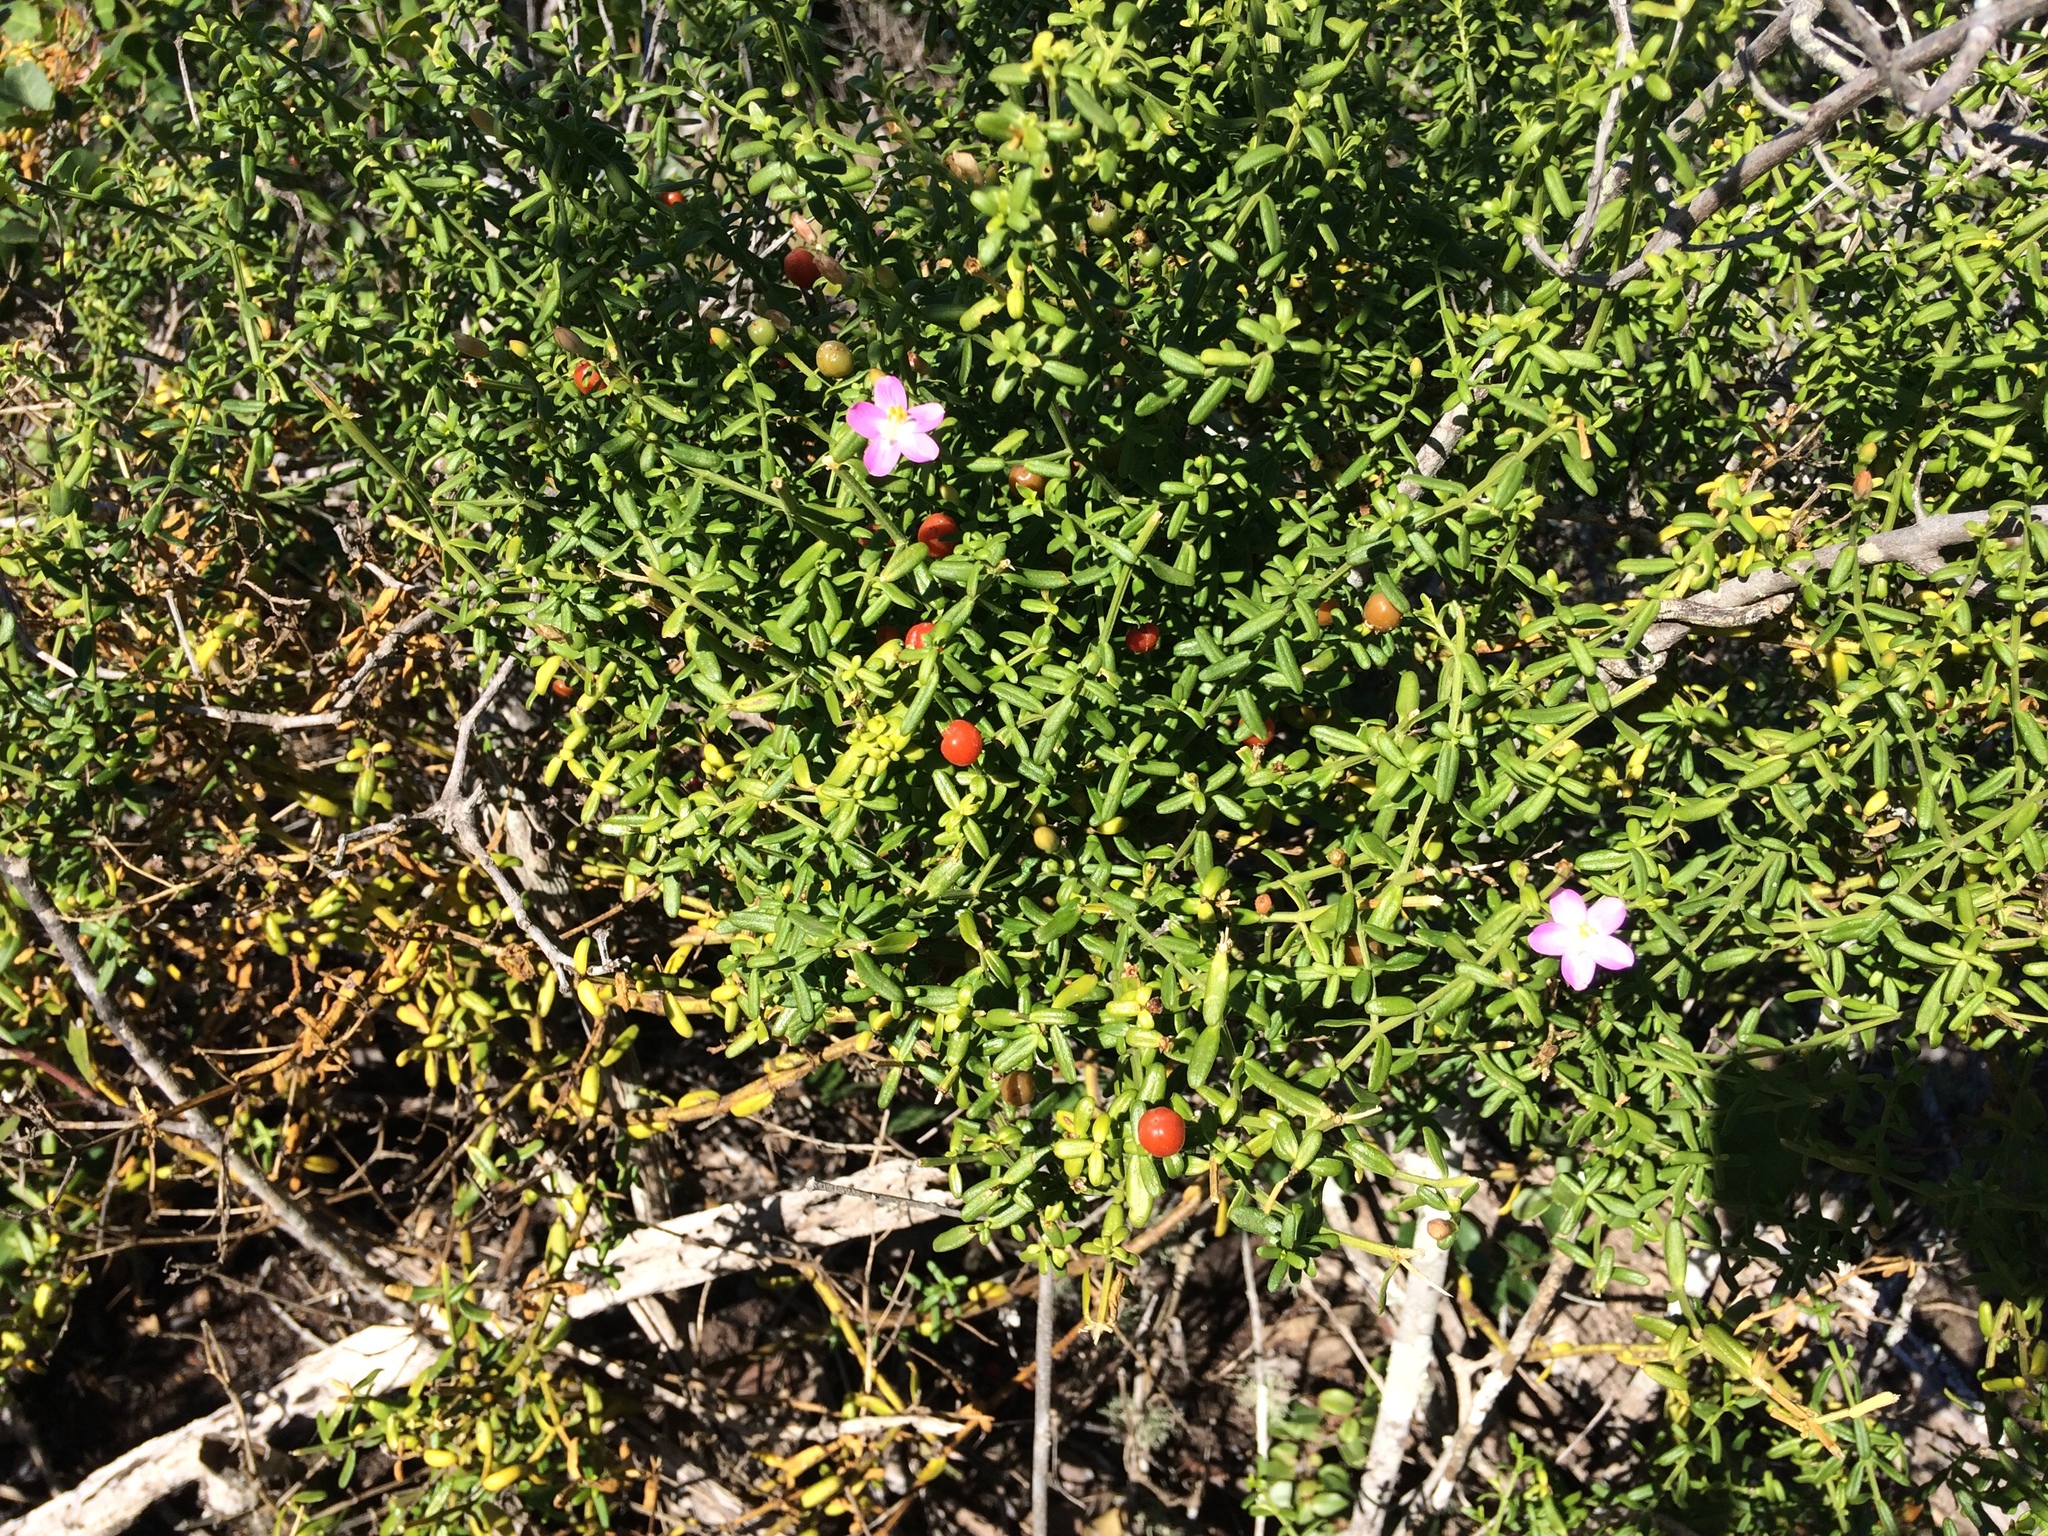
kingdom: Plantae
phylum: Tracheophyta
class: Magnoliopsida
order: Gentianales
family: Gentianaceae
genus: Chironia
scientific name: Chironia baccifera
